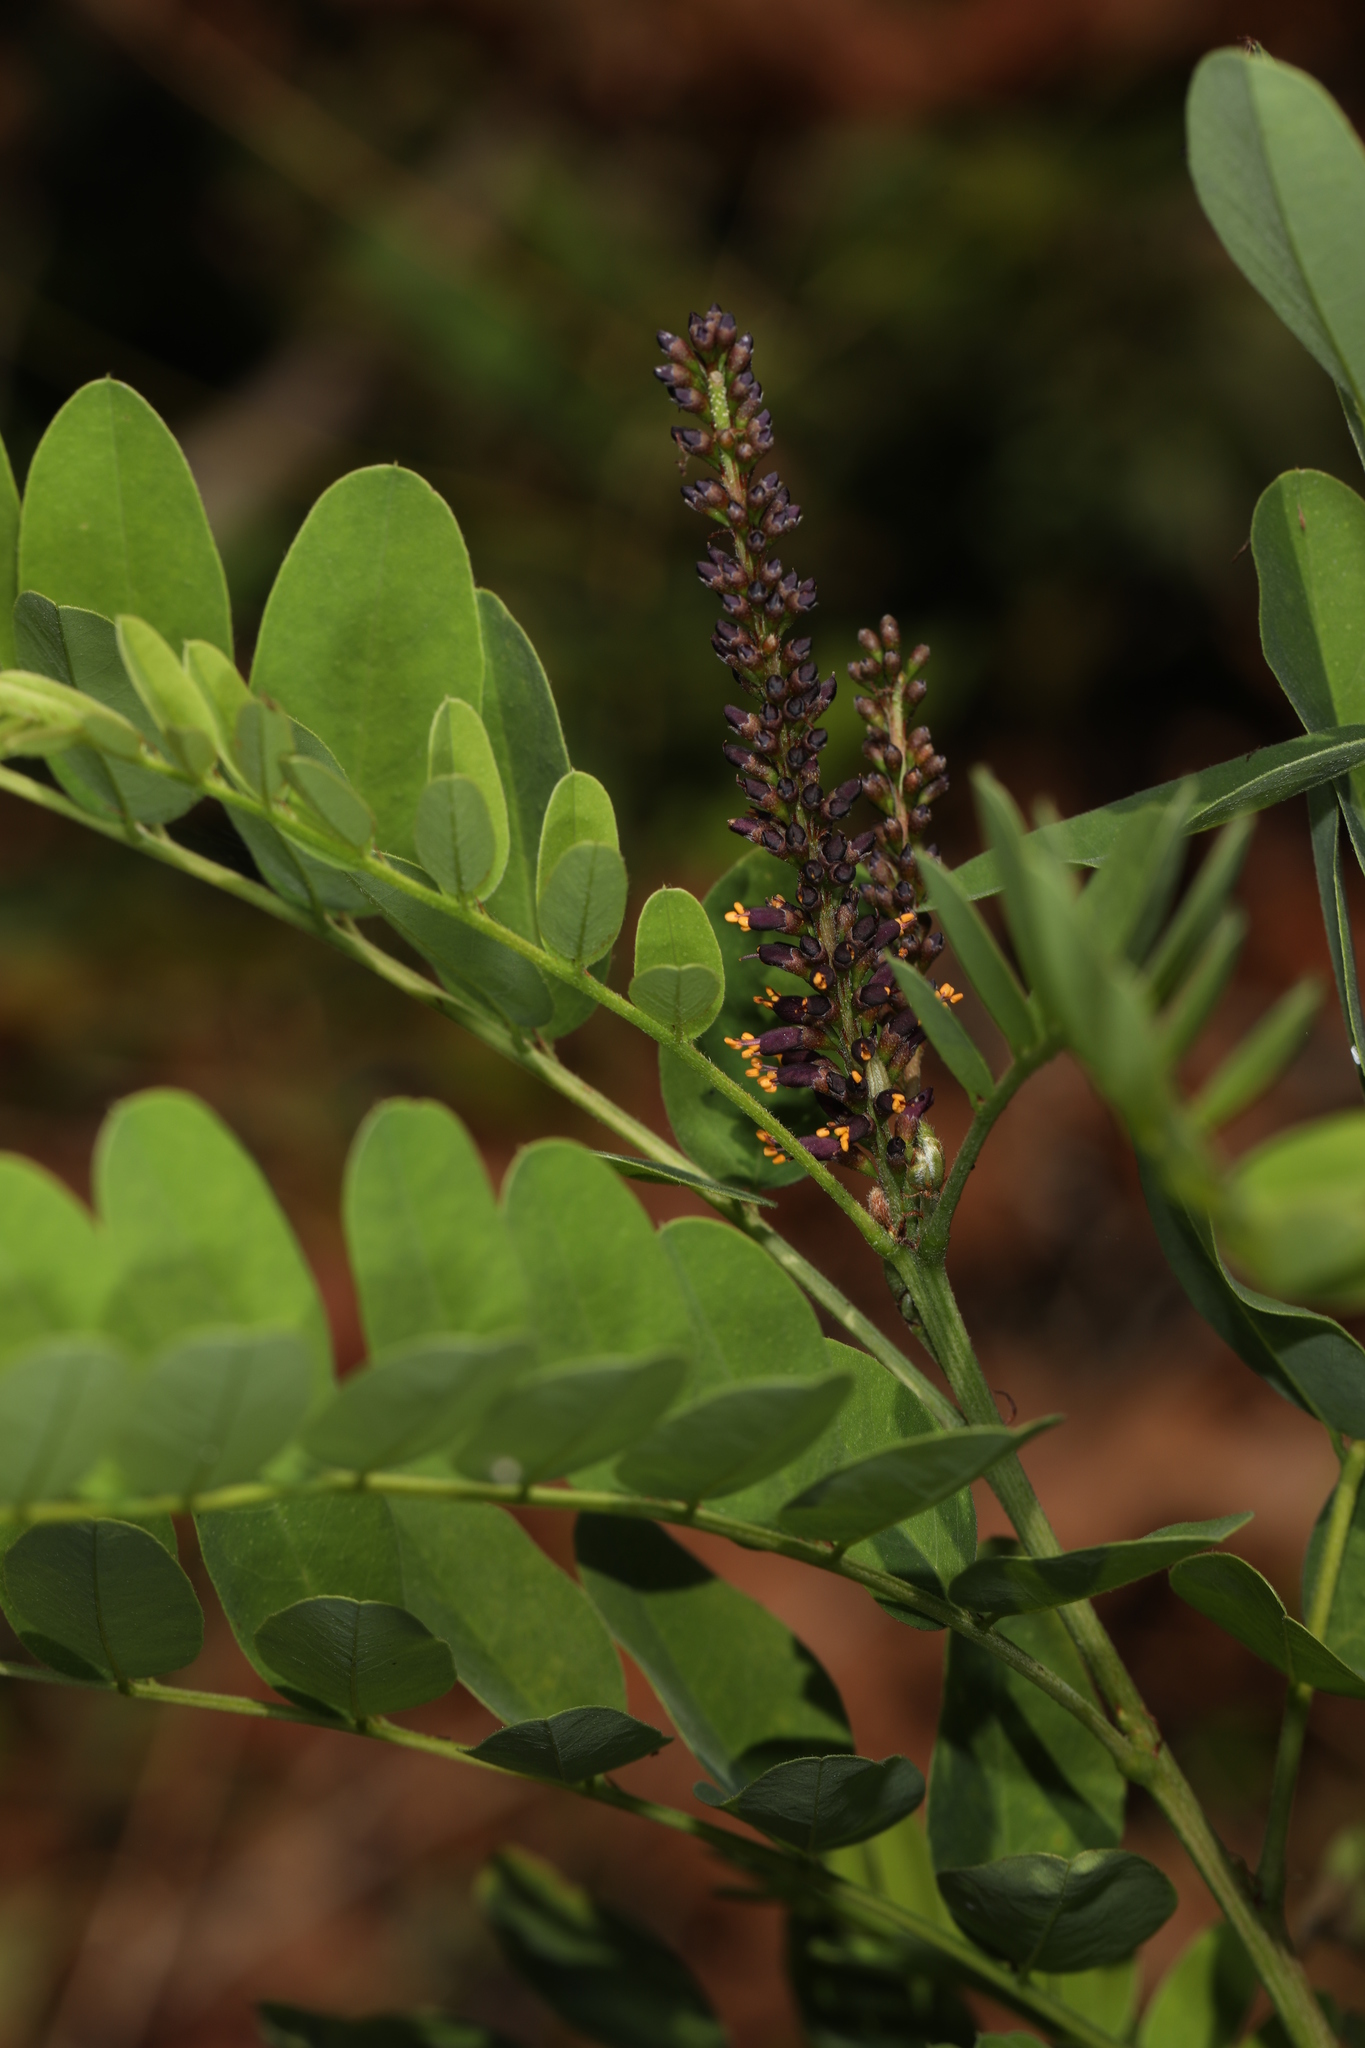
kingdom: Plantae
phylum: Tracheophyta
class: Magnoliopsida
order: Fabales
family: Fabaceae
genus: Amorpha
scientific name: Amorpha fruticosa
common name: False indigo
